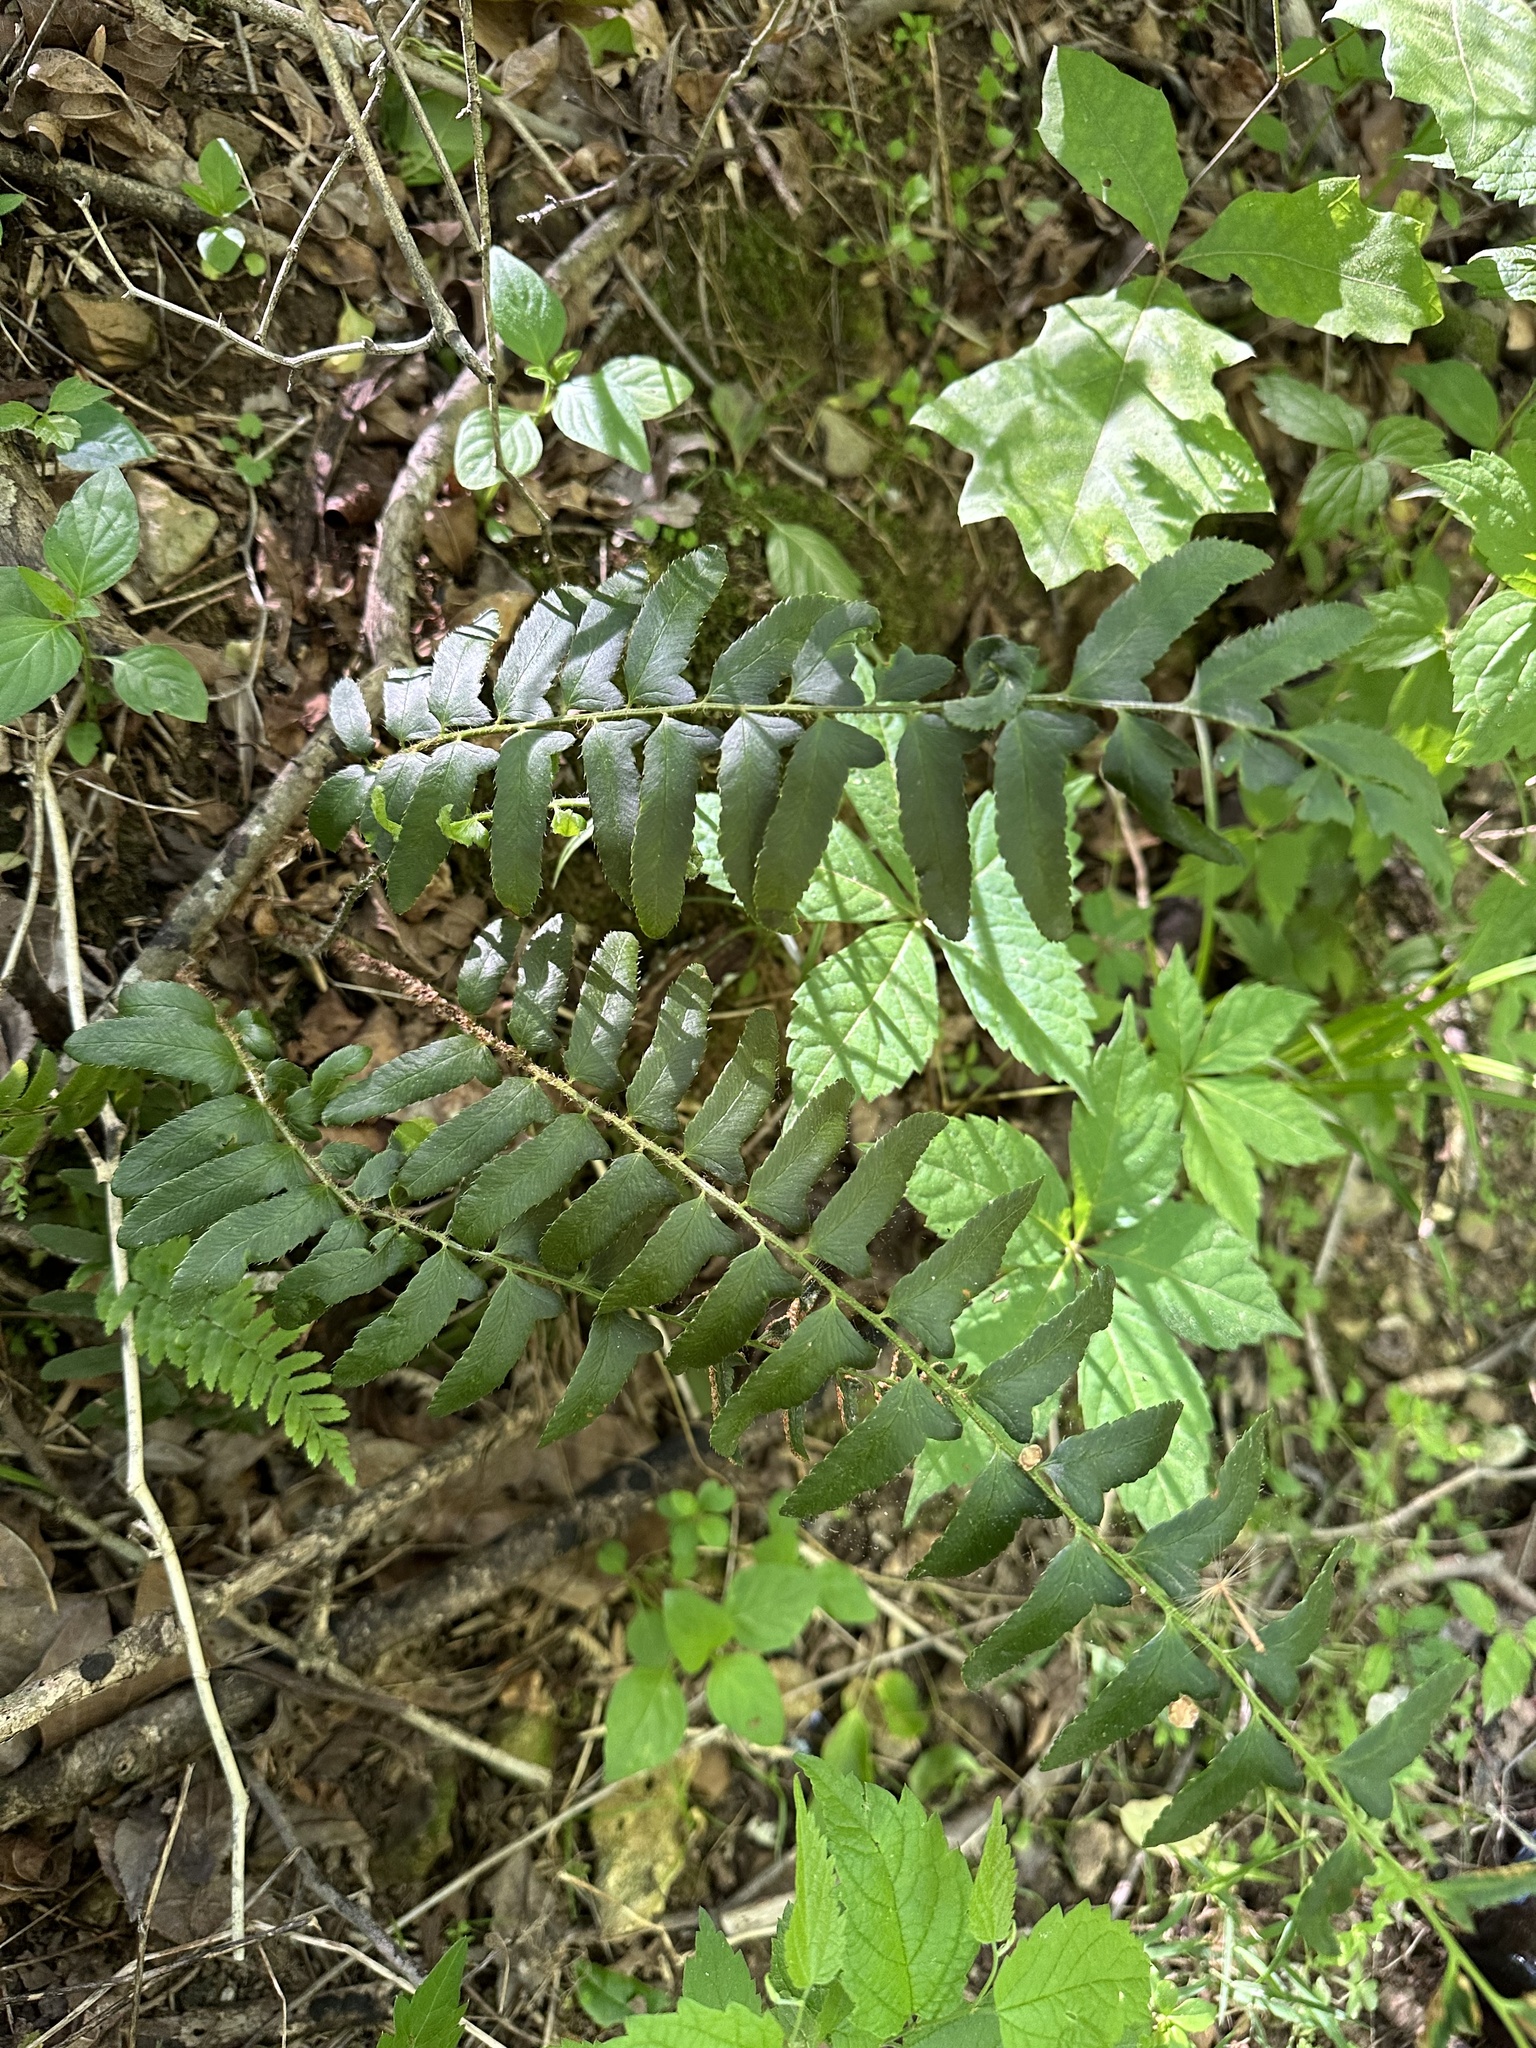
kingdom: Plantae
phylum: Tracheophyta
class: Polypodiopsida
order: Polypodiales
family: Dryopteridaceae
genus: Polystichum
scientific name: Polystichum acrostichoides
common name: Christmas fern
